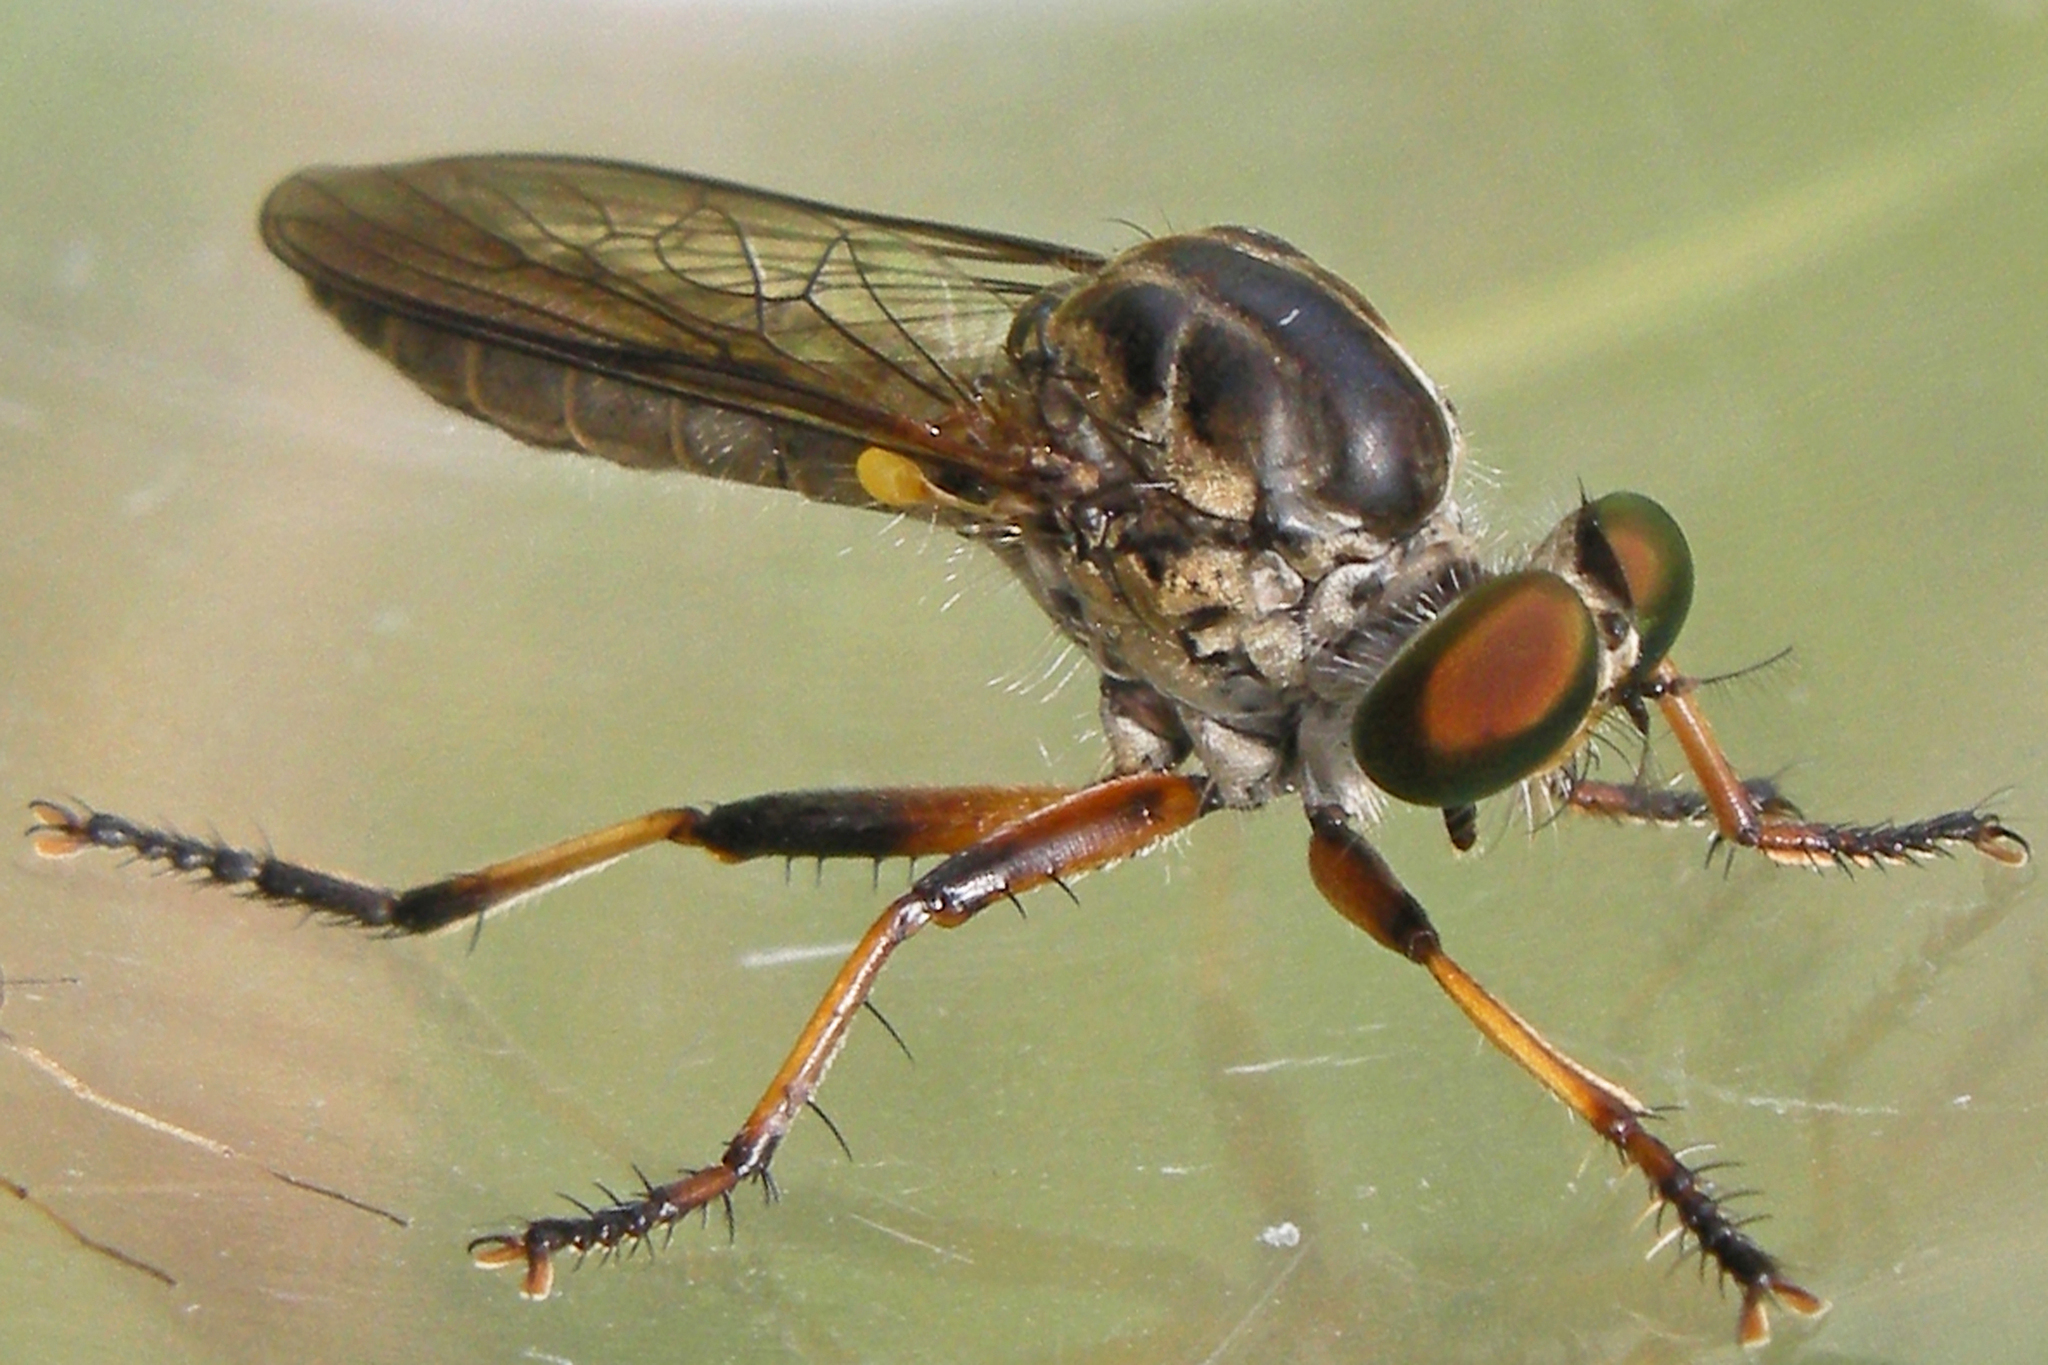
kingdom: Animalia
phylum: Arthropoda
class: Insecta
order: Diptera
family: Asilidae
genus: Ommatius
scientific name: Ommatius tibialis
